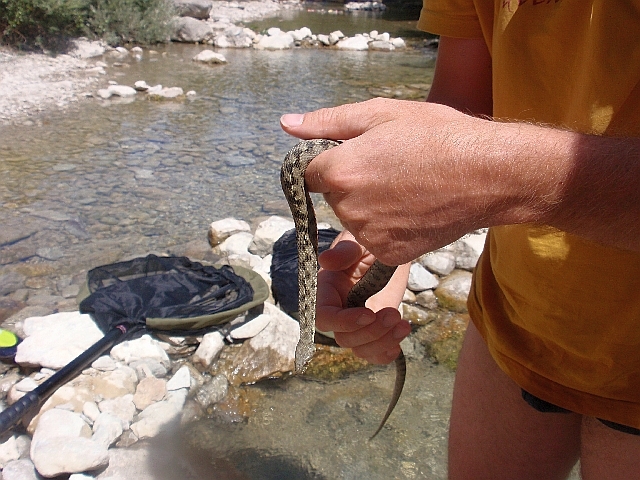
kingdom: Animalia
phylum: Chordata
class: Squamata
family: Colubridae
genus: Natrix
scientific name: Natrix maura
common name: Viperine water snake
